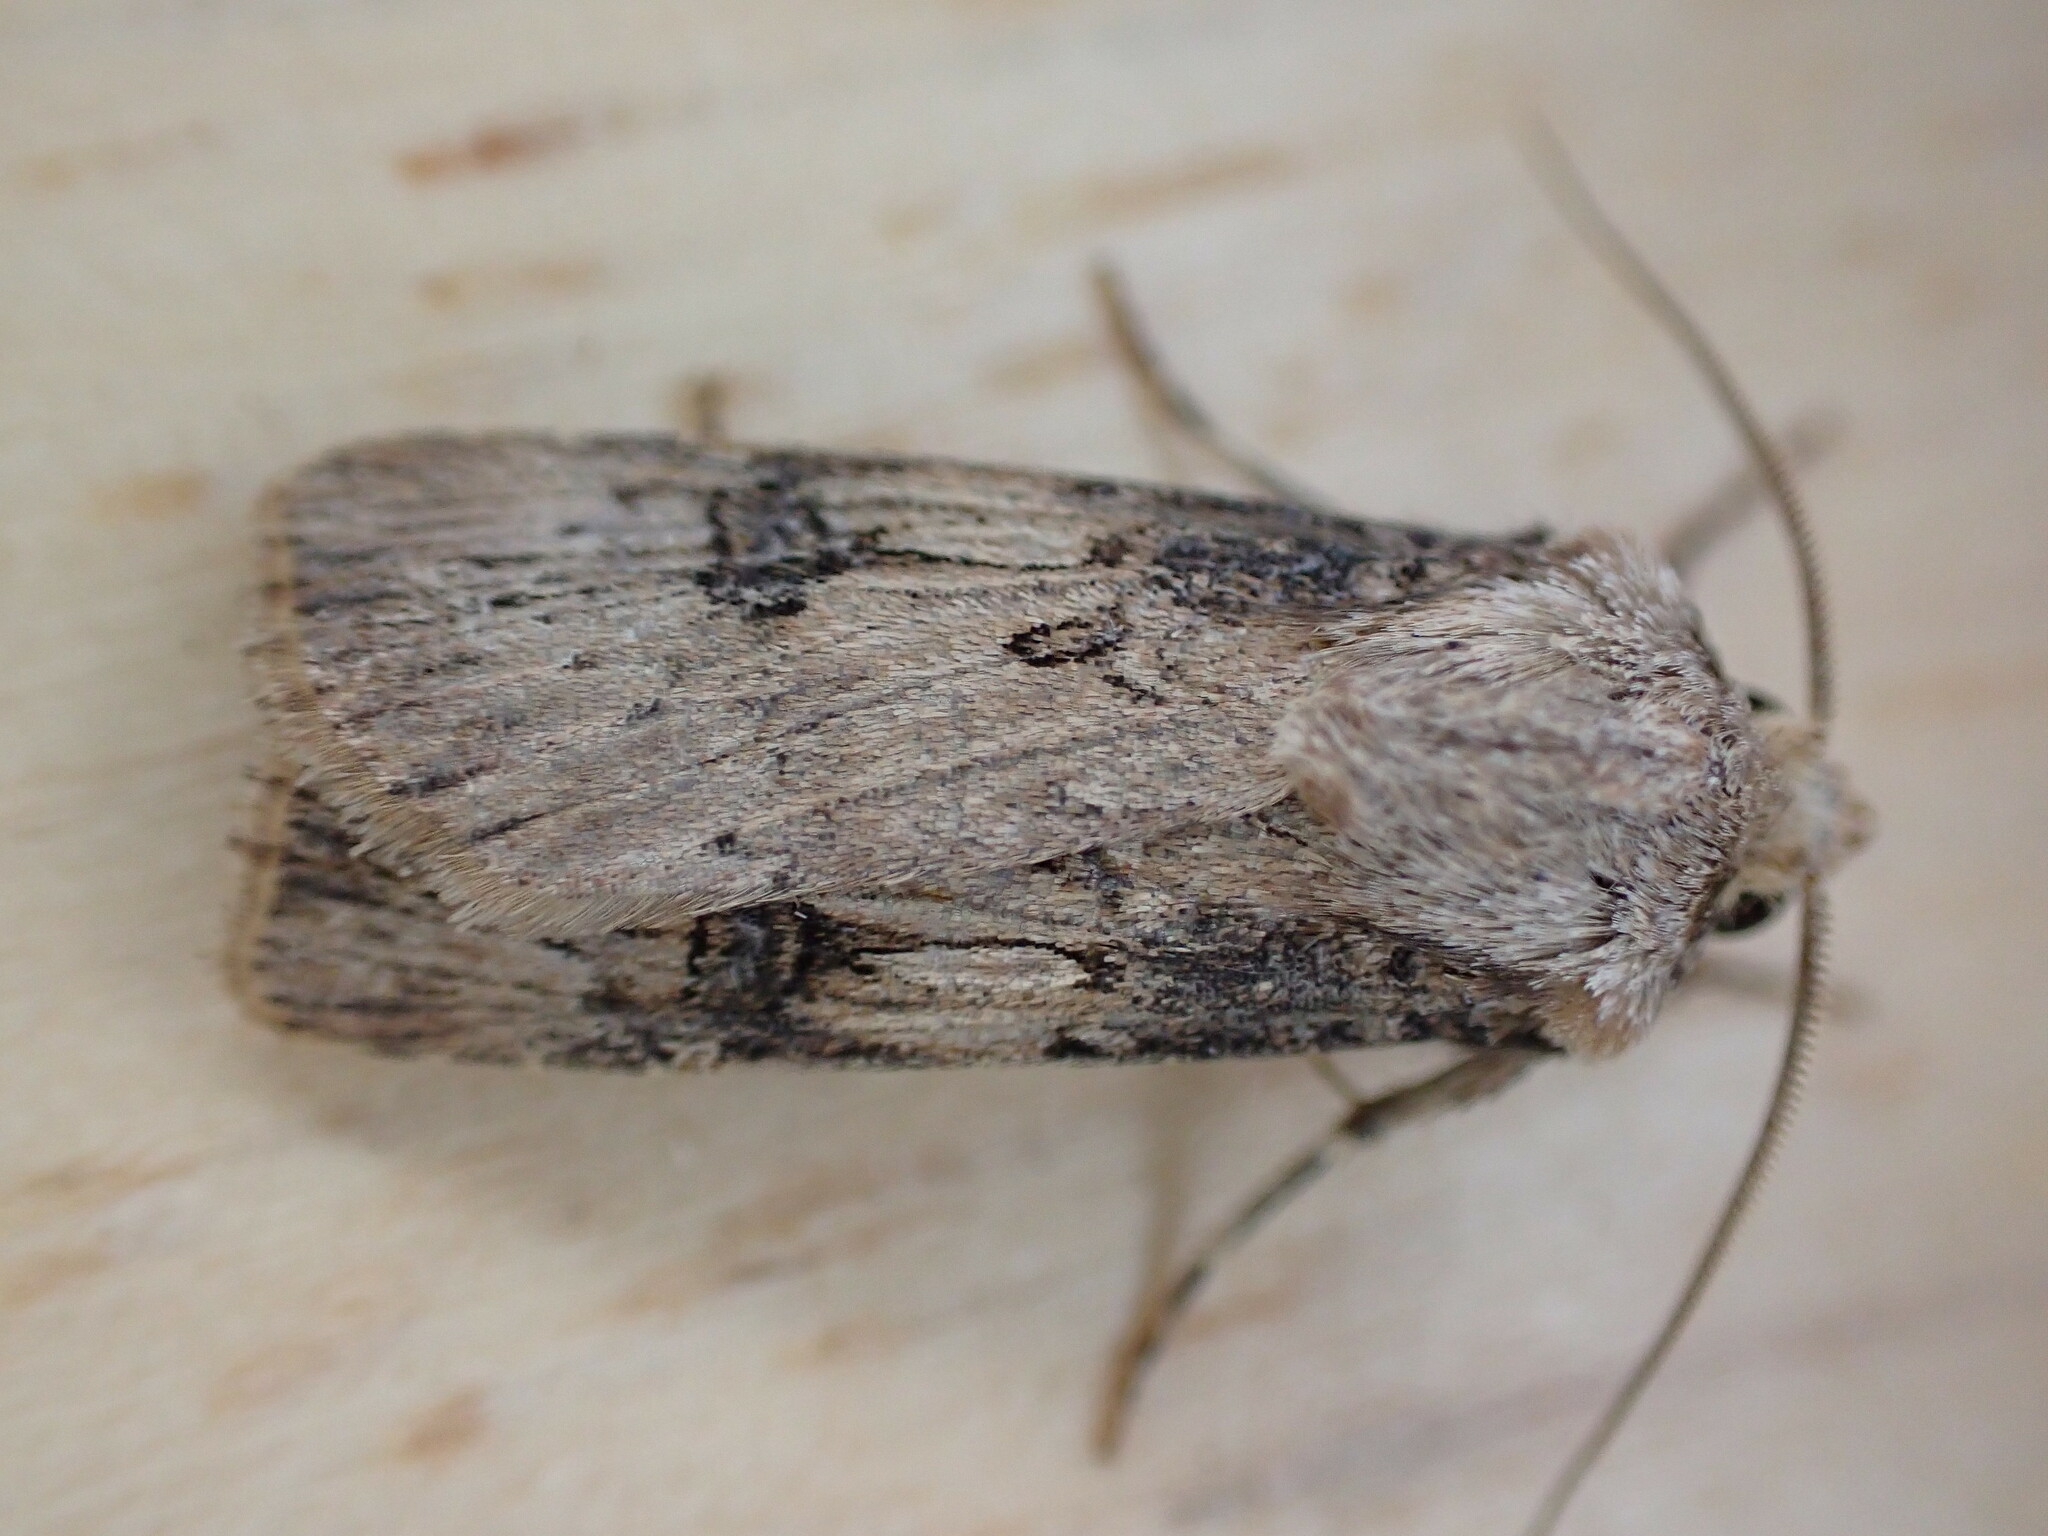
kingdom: Animalia
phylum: Arthropoda
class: Insecta
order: Lepidoptera
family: Noctuidae
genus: Agrotis
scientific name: Agrotis puta
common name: Shuttle-shaped dart
